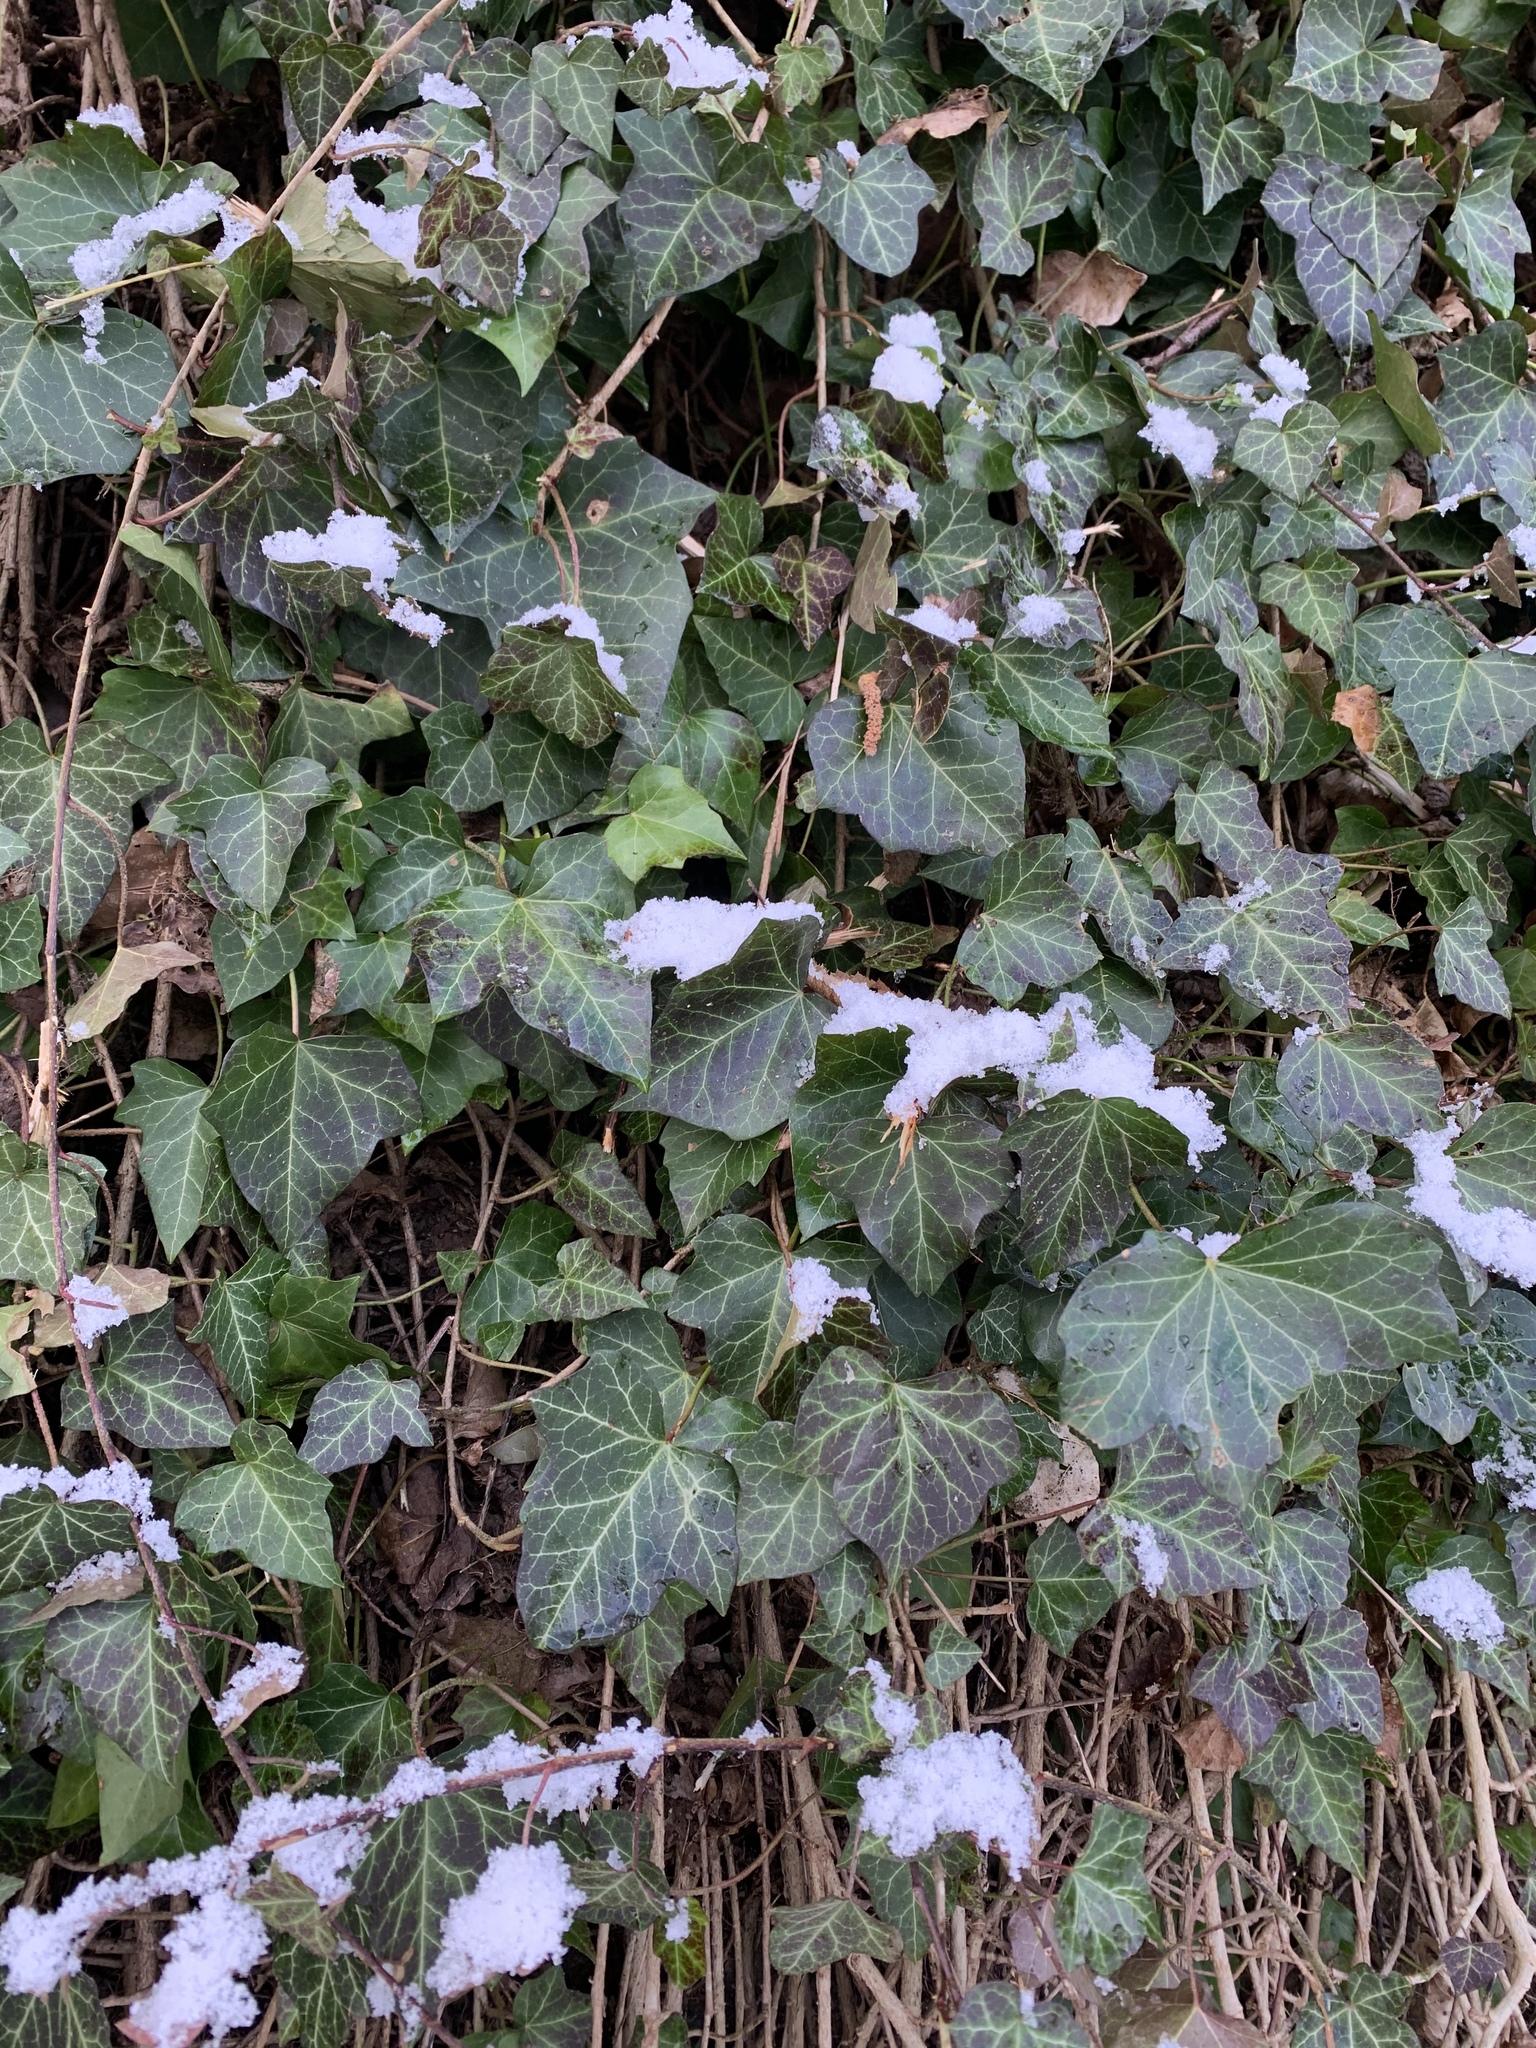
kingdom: Plantae
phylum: Tracheophyta
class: Magnoliopsida
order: Apiales
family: Araliaceae
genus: Hedera
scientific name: Hedera helix
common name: Ivy
